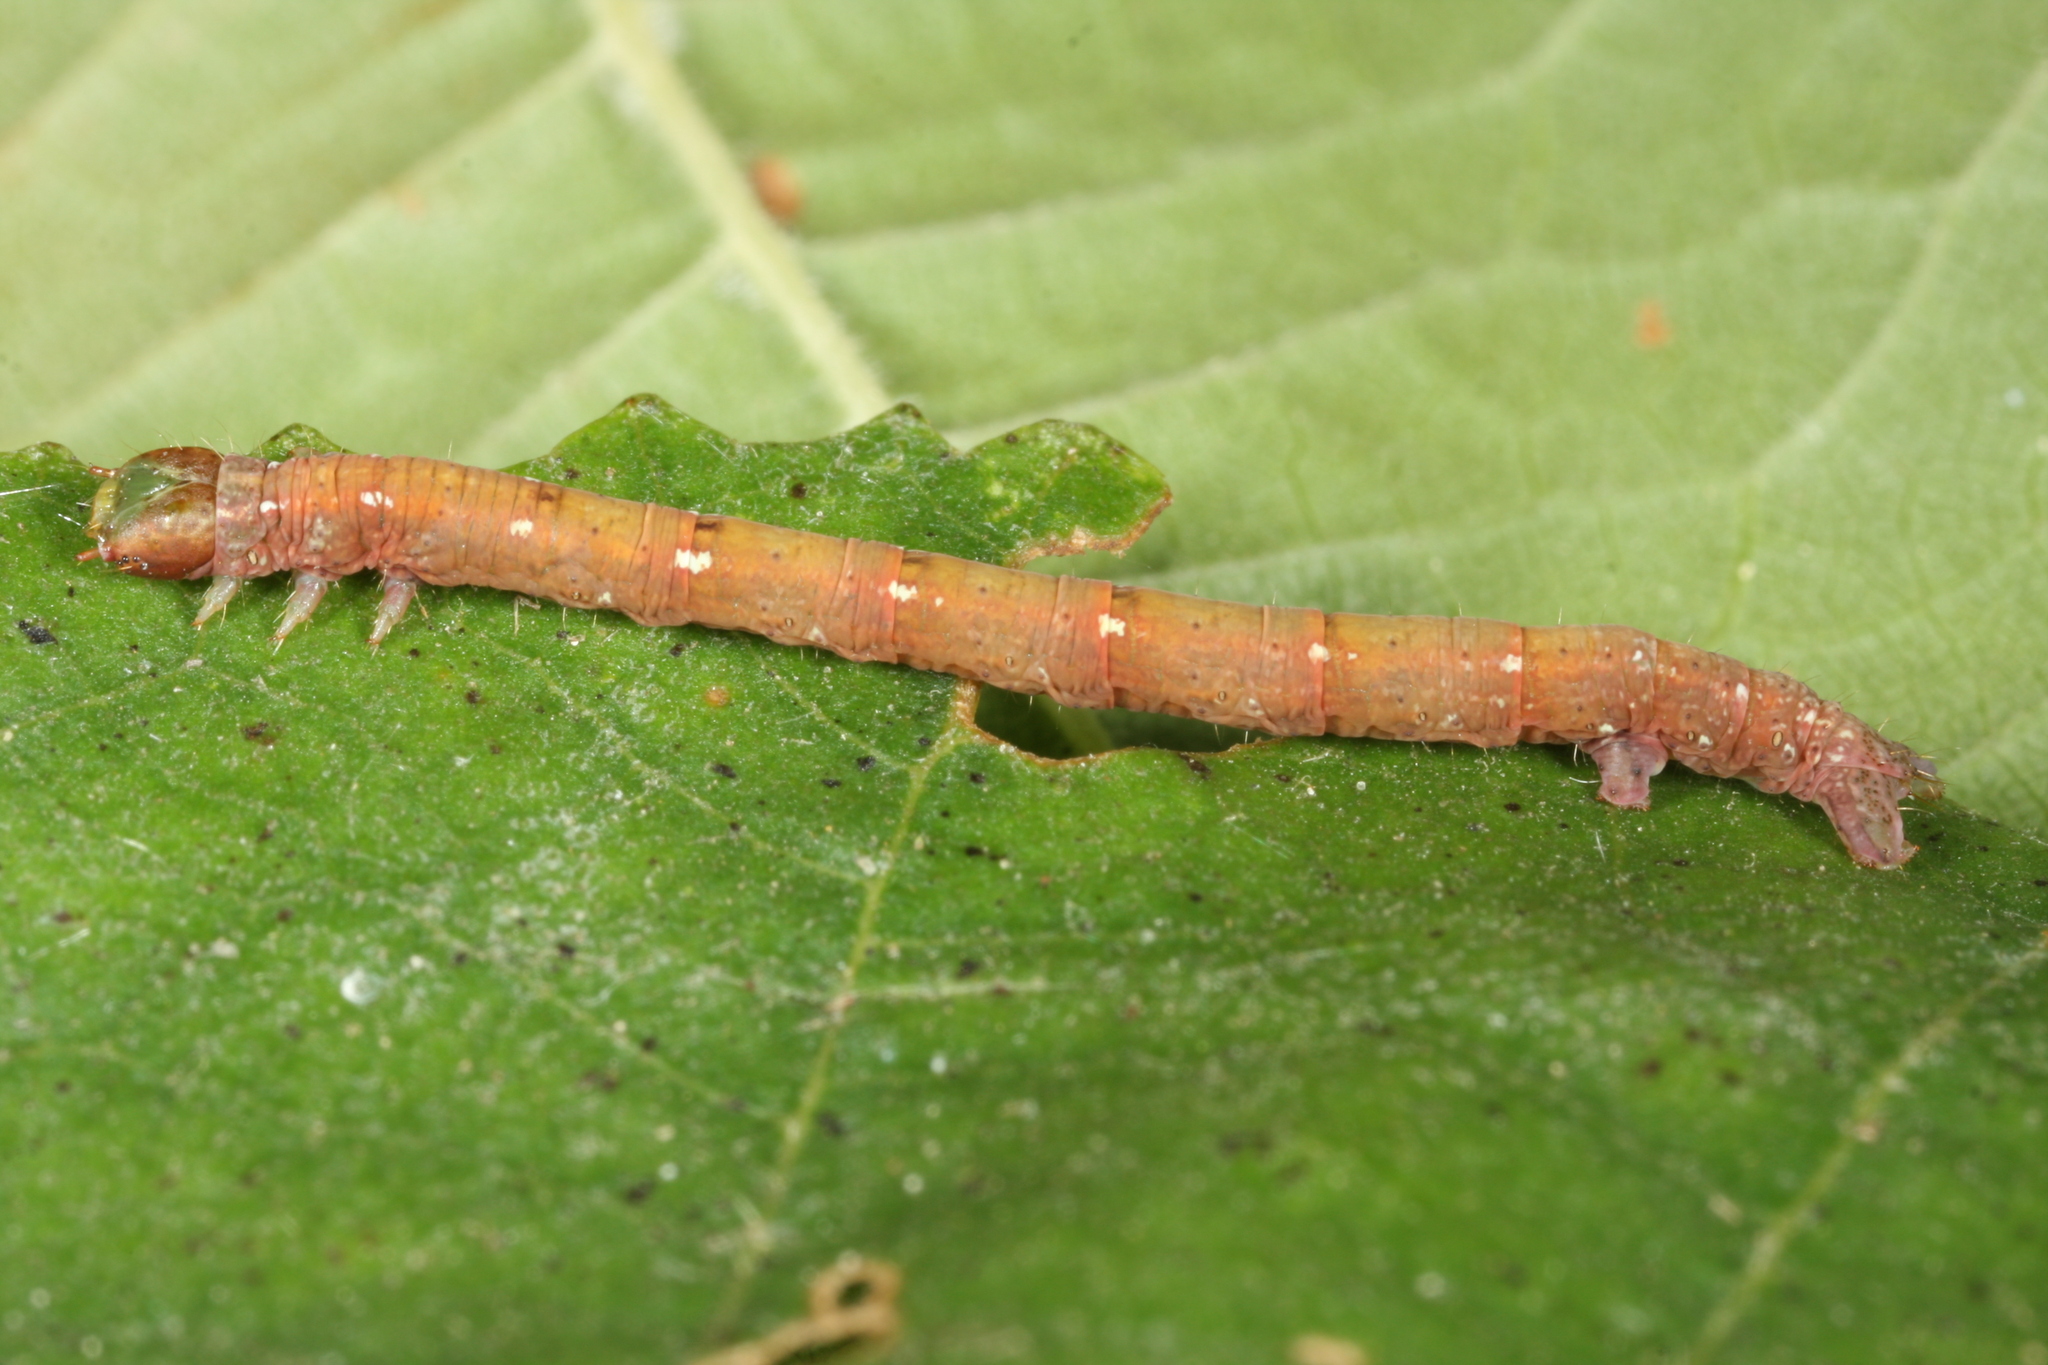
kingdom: Animalia
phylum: Arthropoda
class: Insecta
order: Lepidoptera
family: Geometridae
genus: Cabera
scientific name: Cabera pusaria
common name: Common white wave
